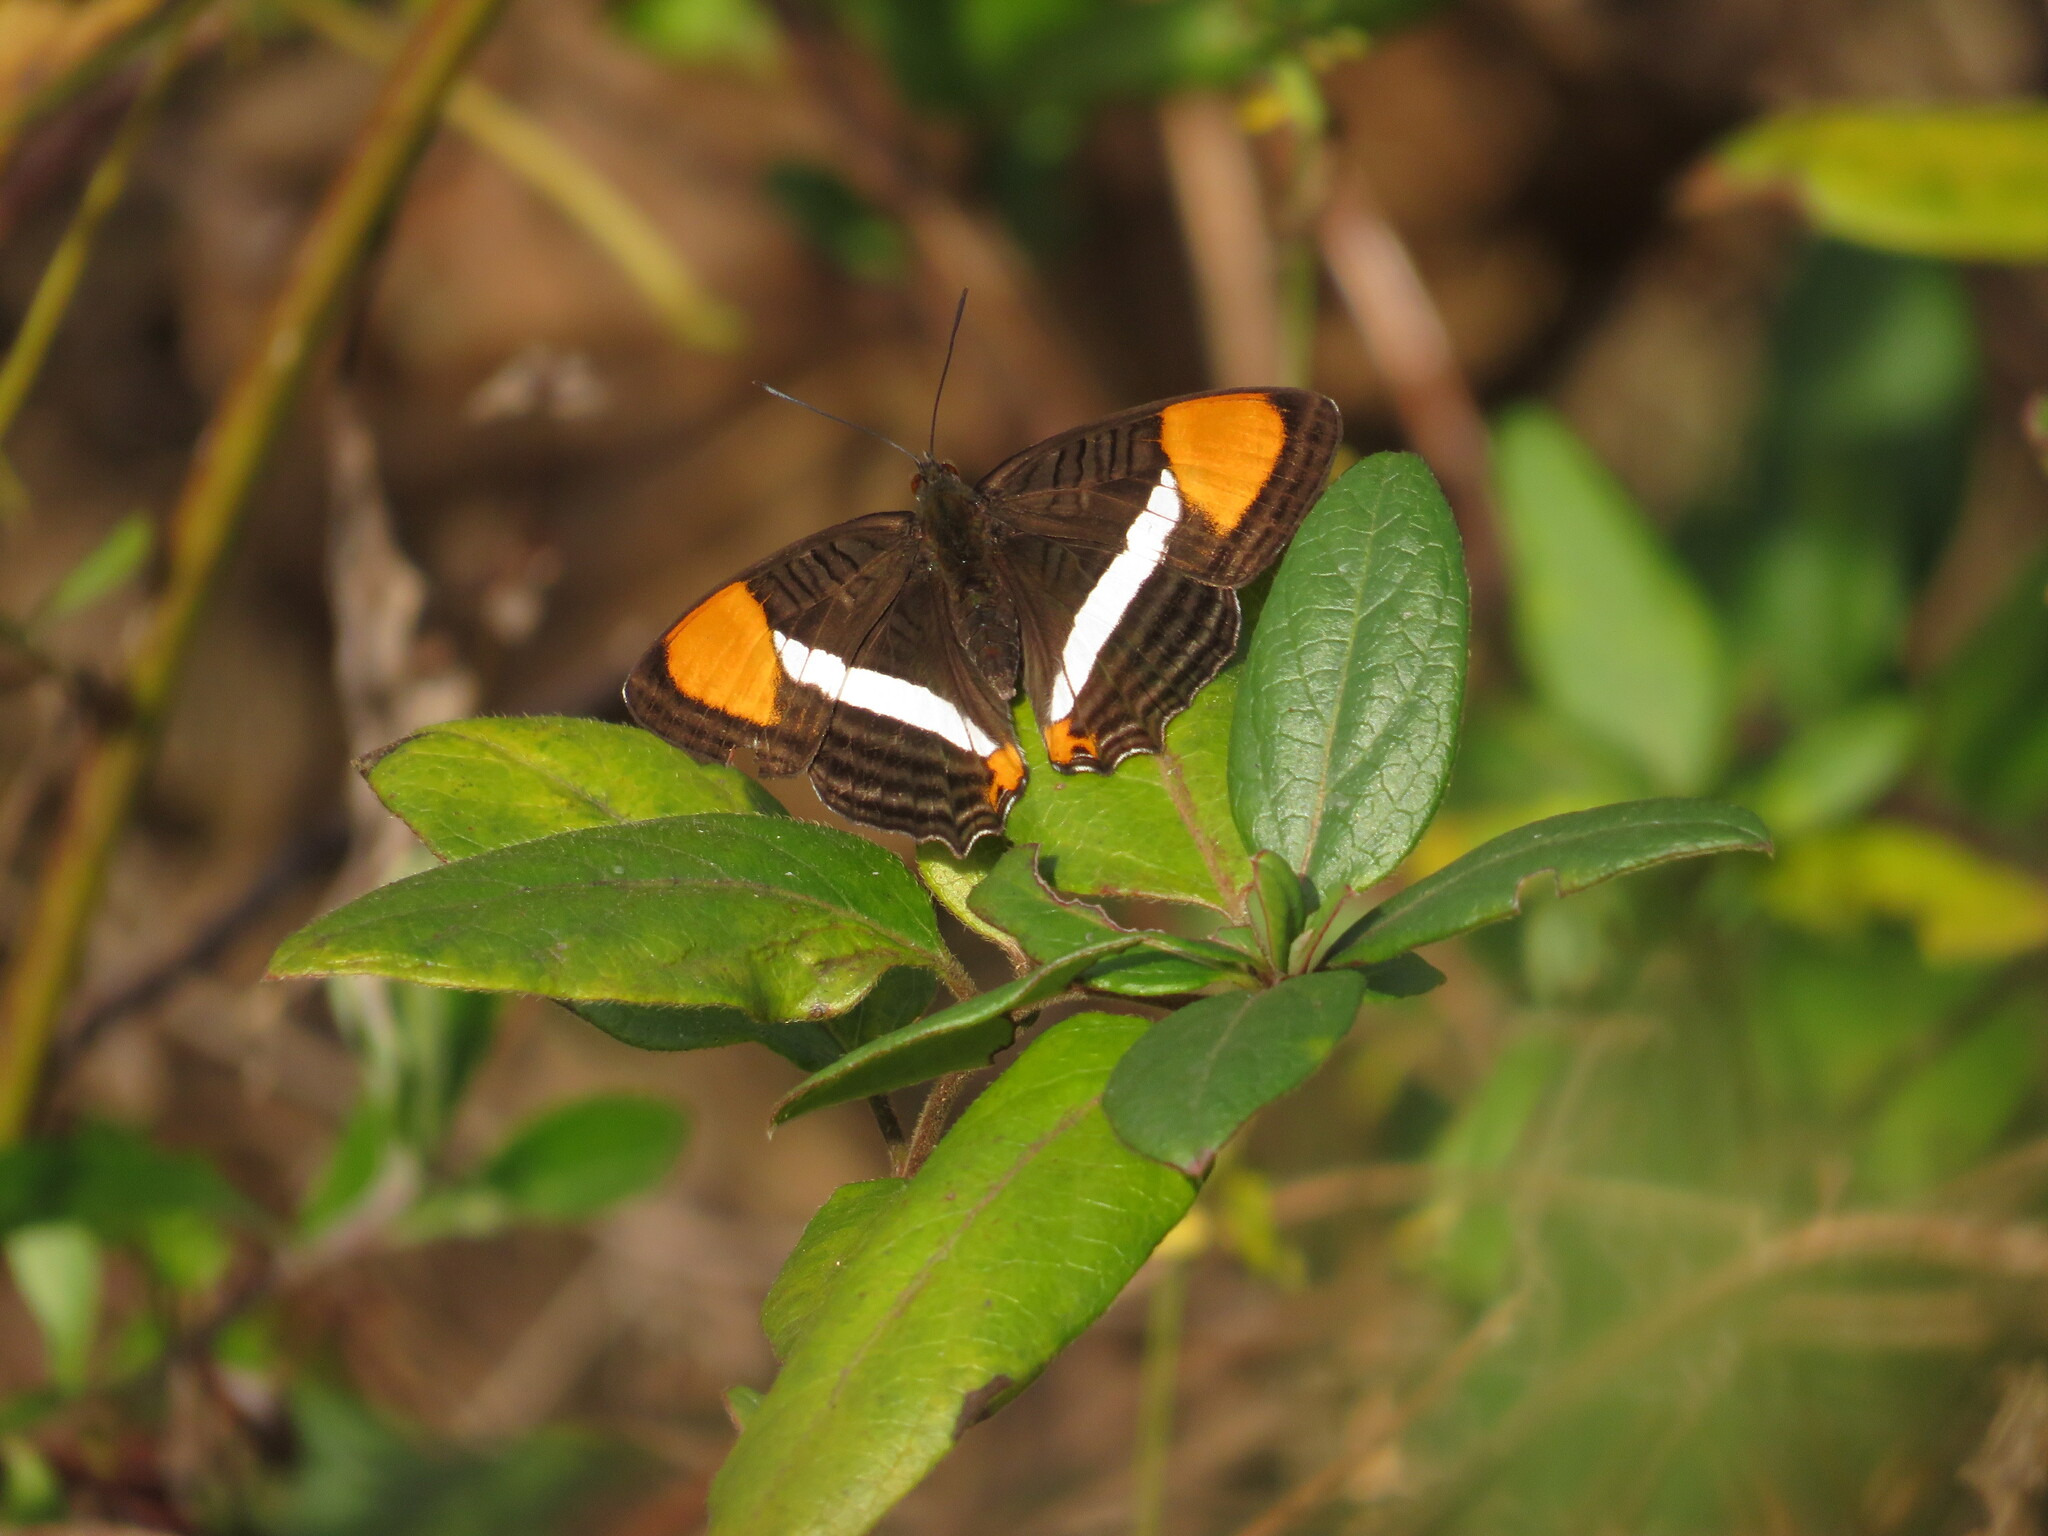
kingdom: Animalia
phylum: Arthropoda
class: Insecta
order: Lepidoptera
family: Nymphalidae
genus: Limenitis
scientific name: Limenitis syma
